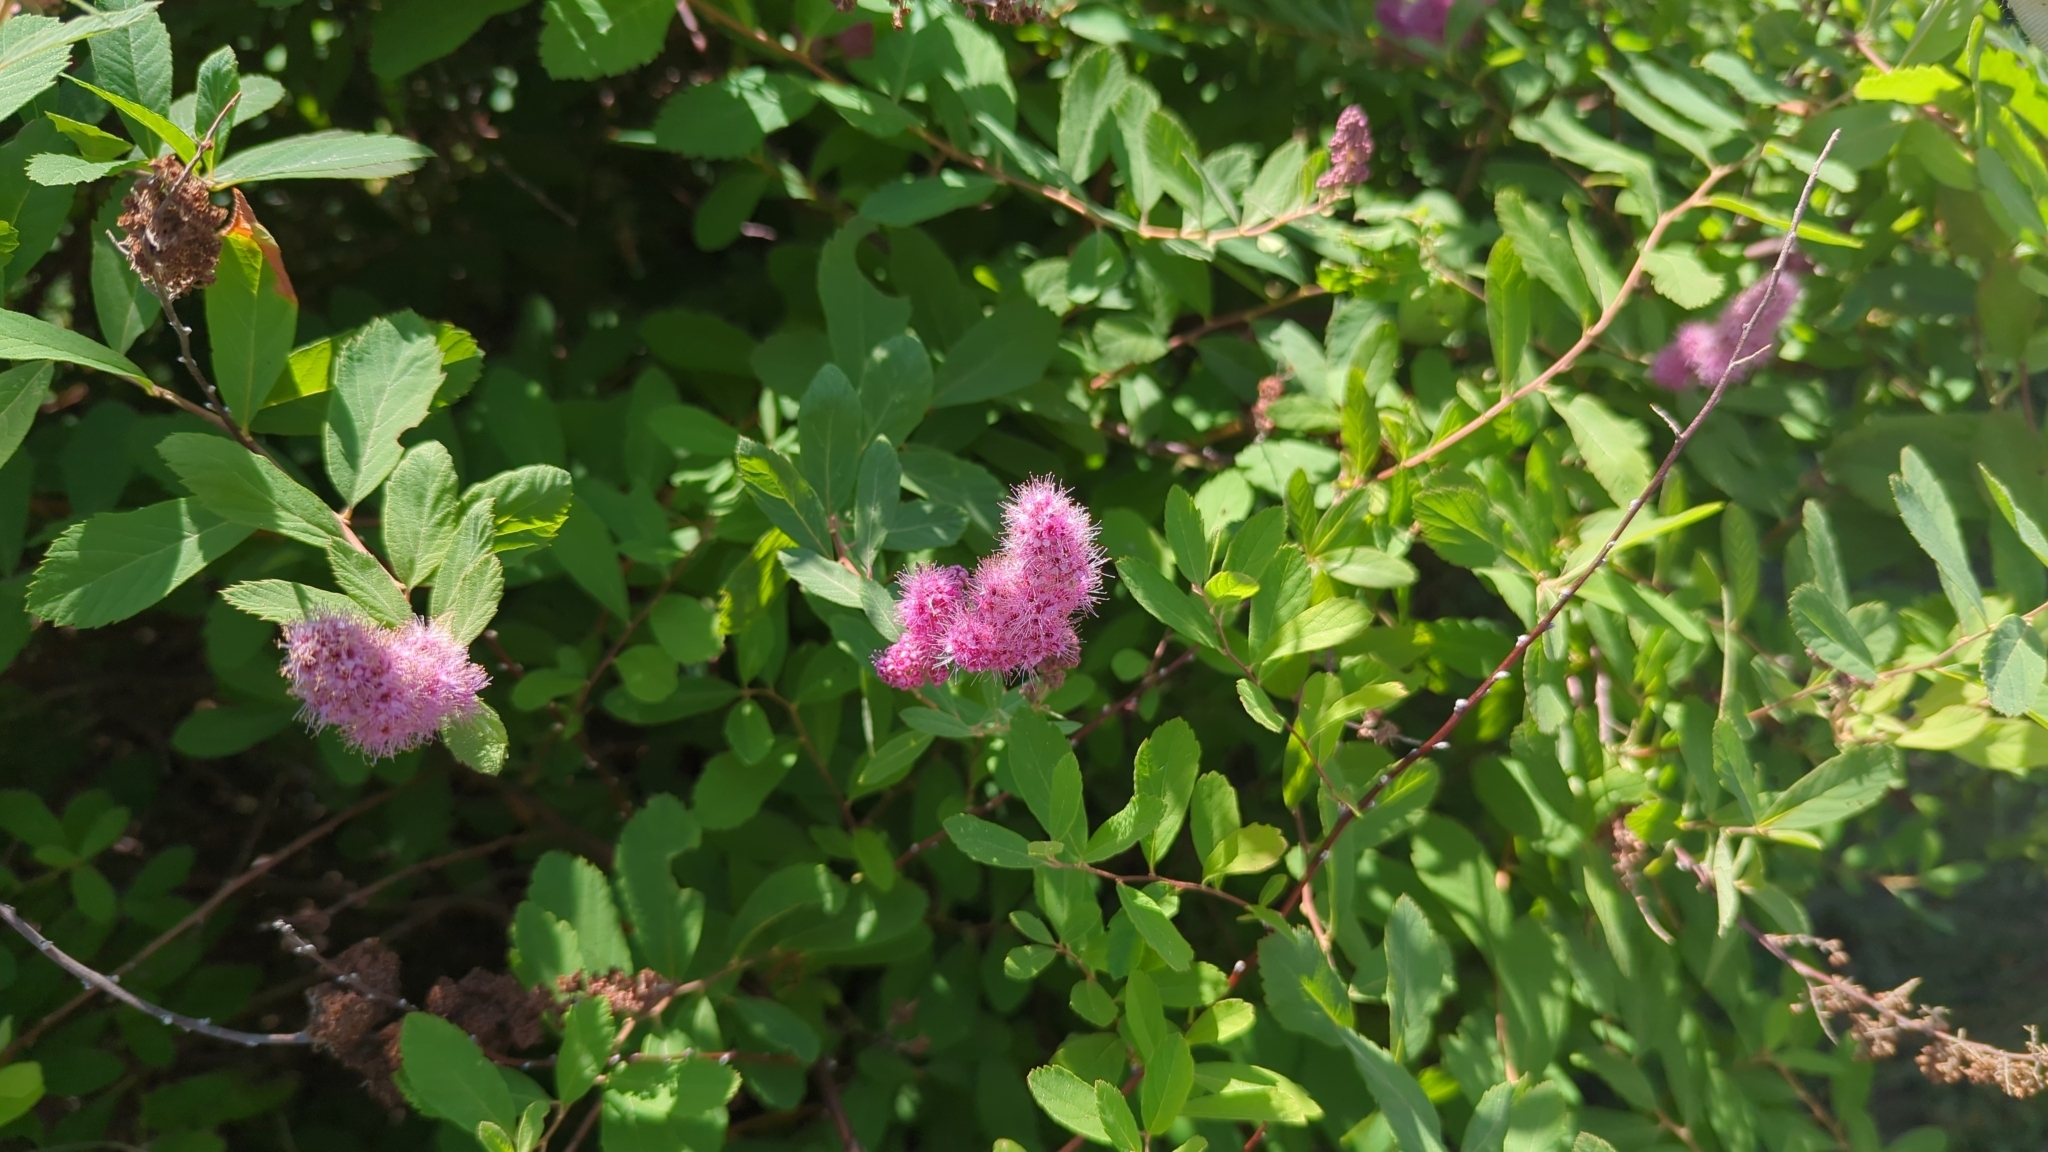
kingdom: Plantae
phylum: Tracheophyta
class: Magnoliopsida
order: Rosales
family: Rosaceae
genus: Spiraea
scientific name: Spiraea douglasii
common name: Steeplebush
